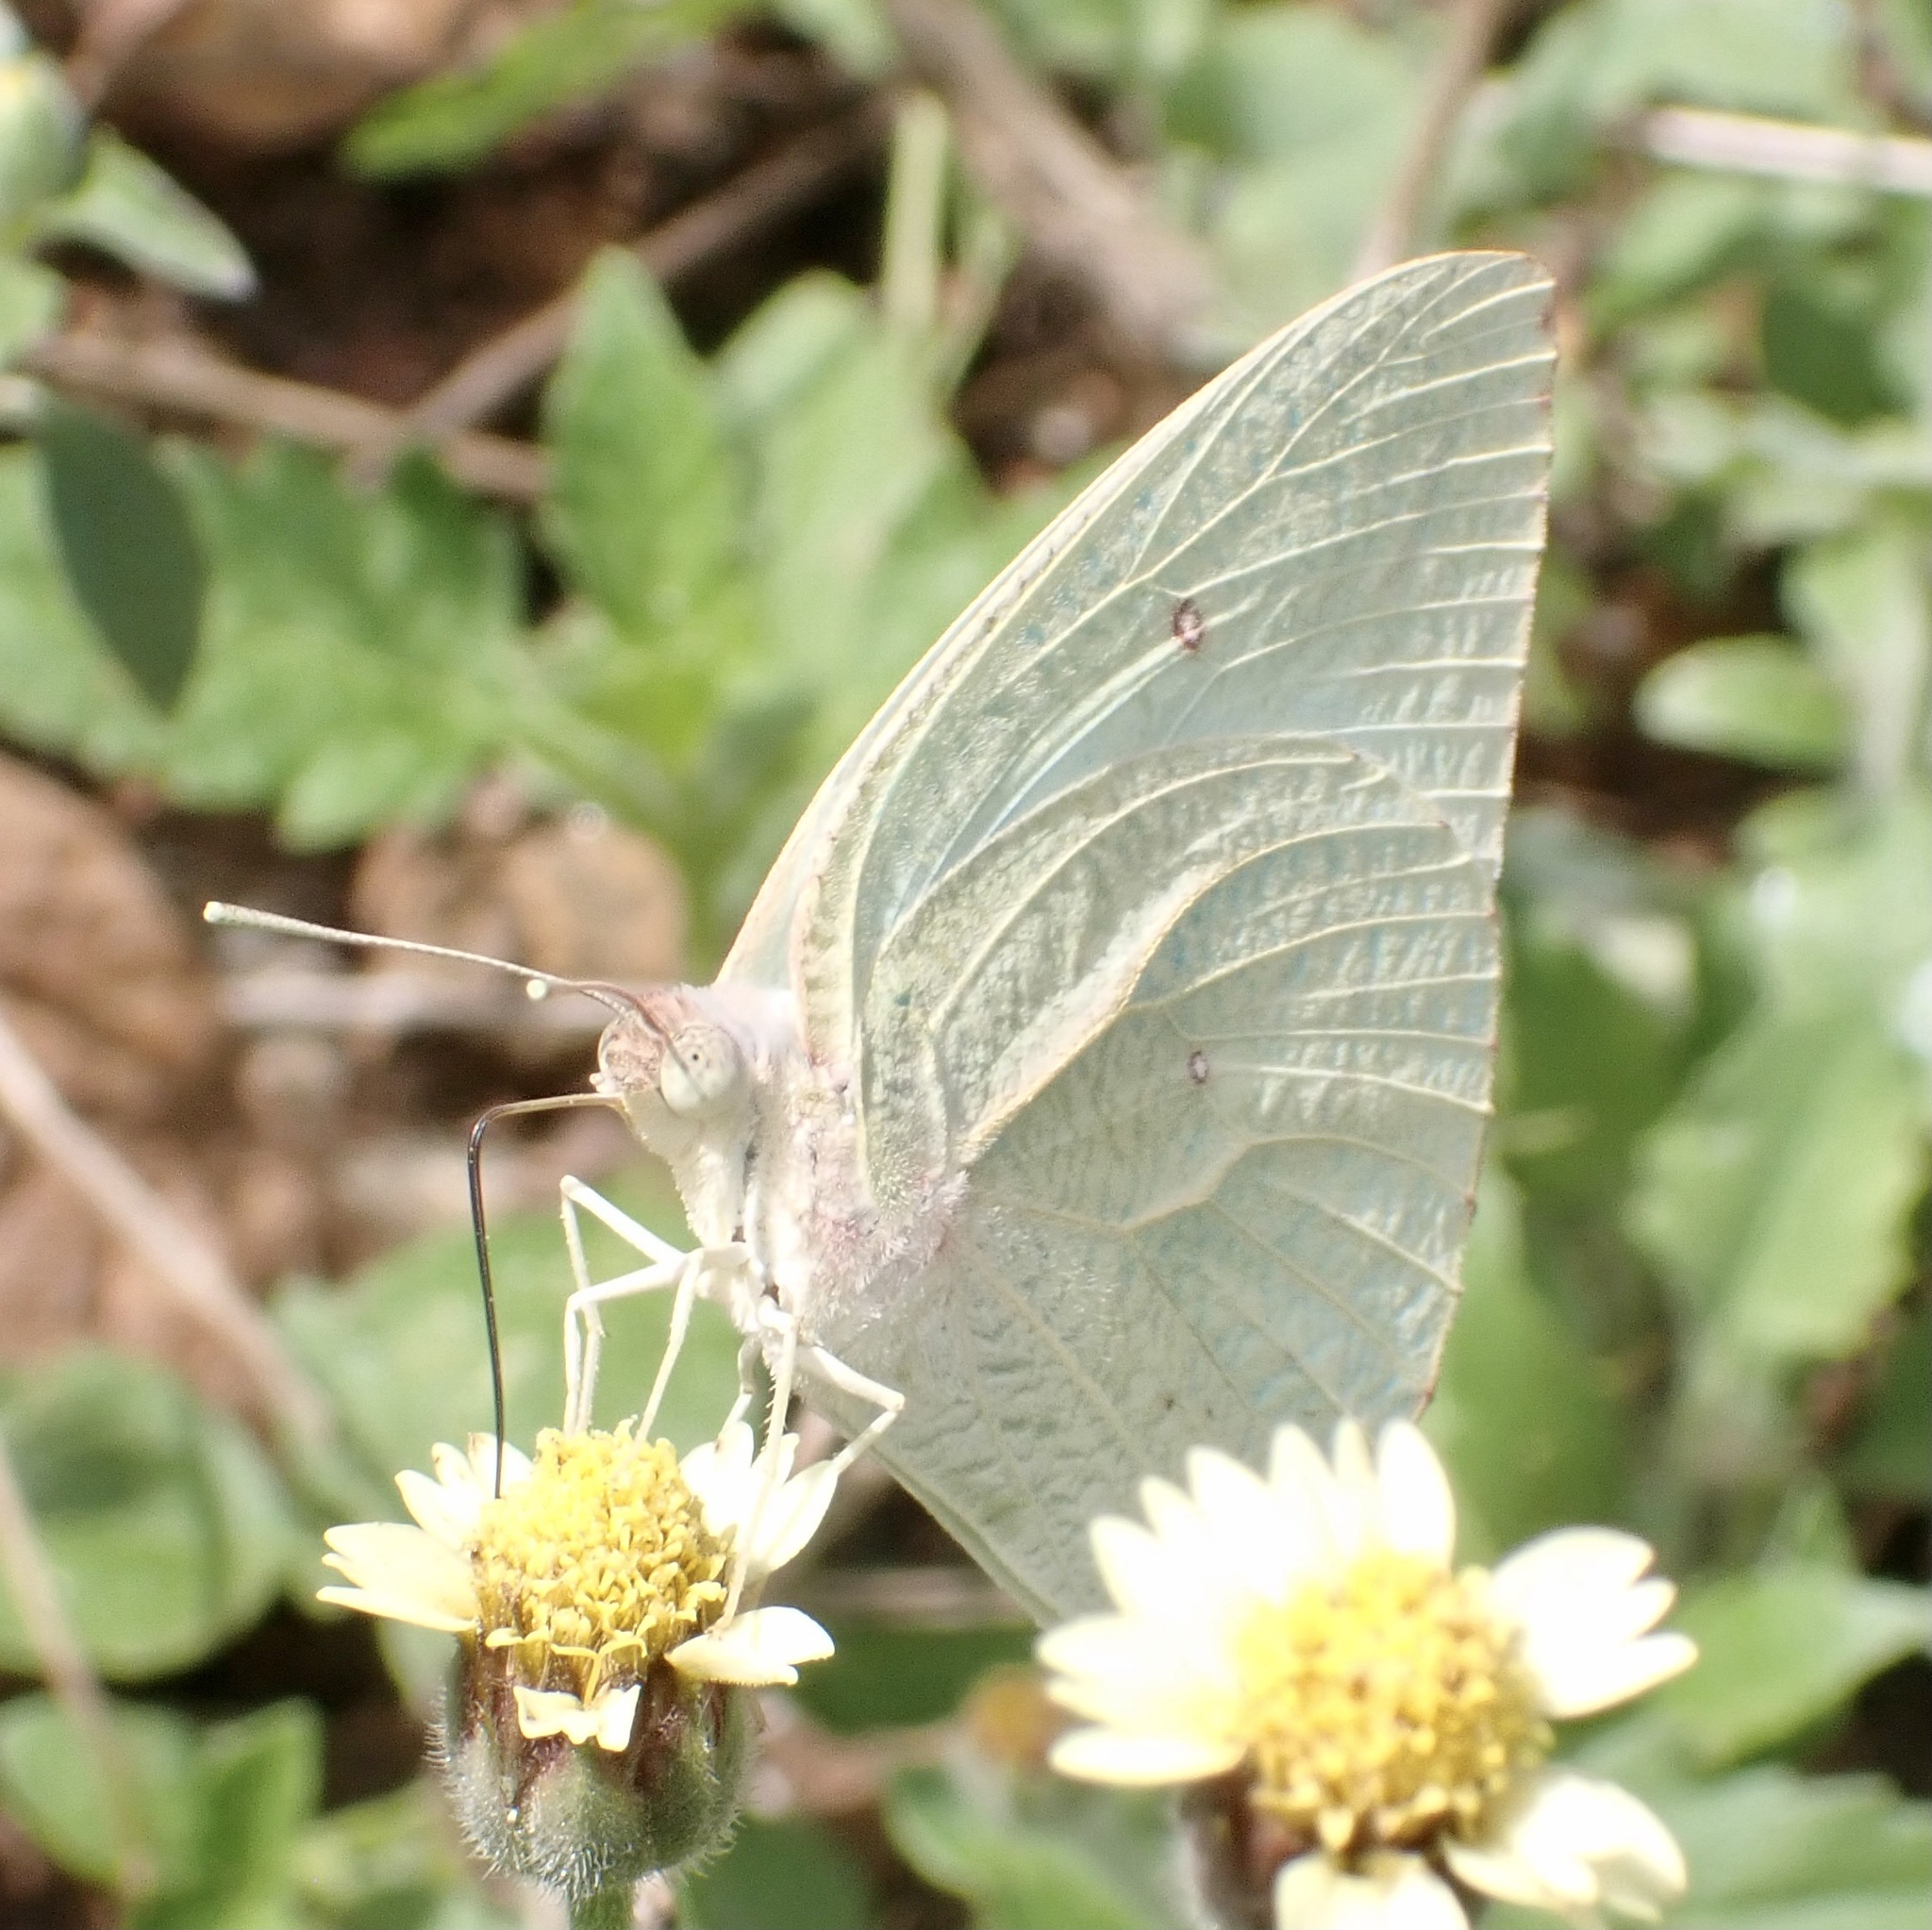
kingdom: Animalia
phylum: Arthropoda
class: Insecta
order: Lepidoptera
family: Pieridae
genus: Catopsilia
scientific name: Catopsilia florella
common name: African migrant
